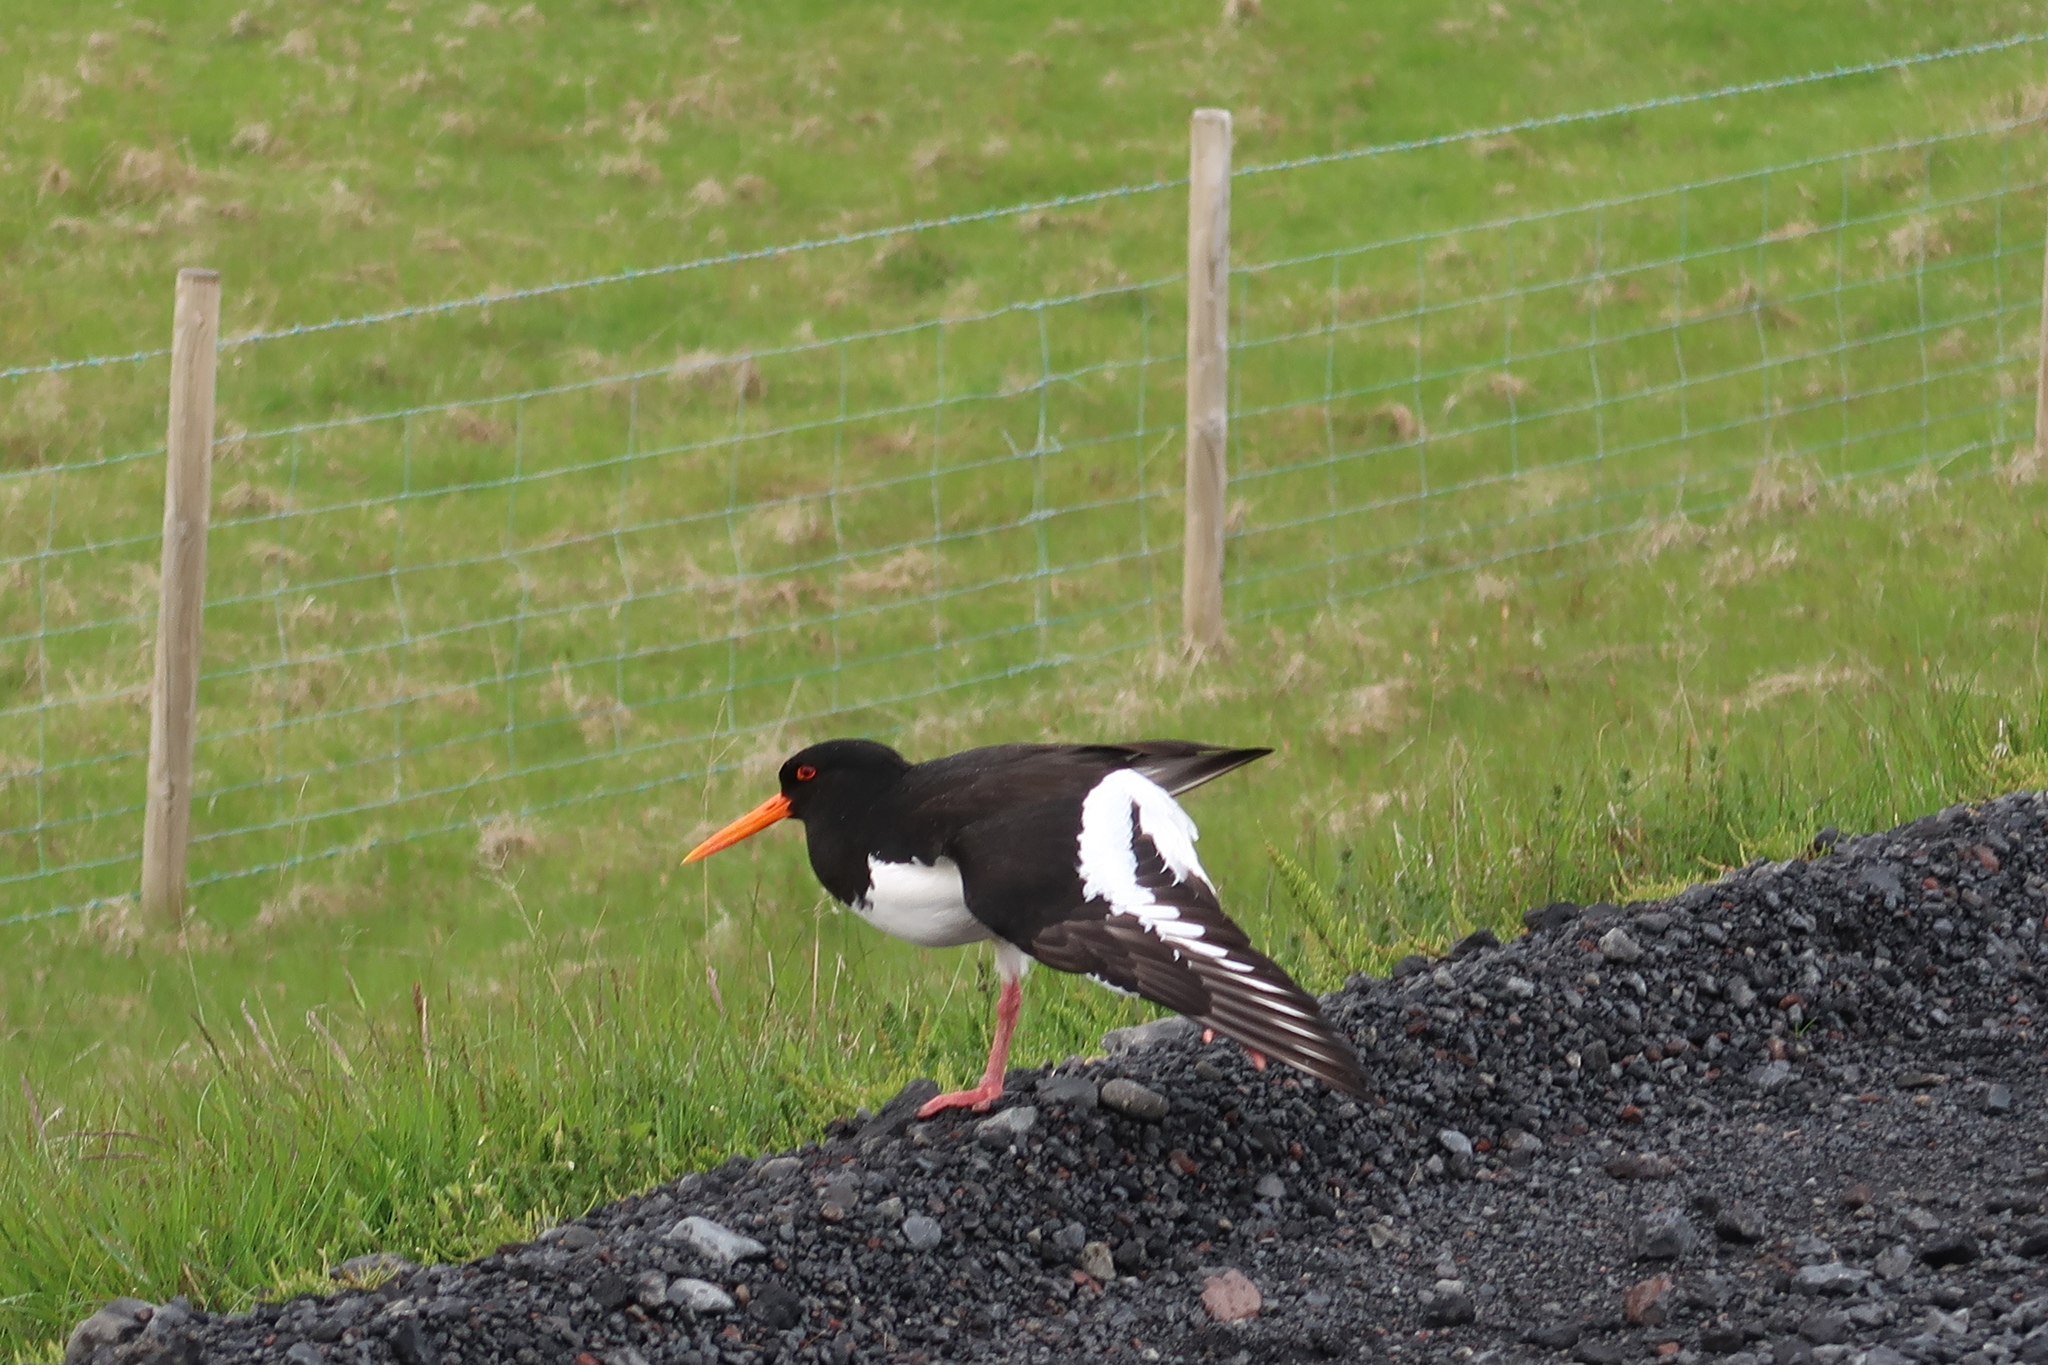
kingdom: Animalia
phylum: Chordata
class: Aves
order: Charadriiformes
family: Haematopodidae
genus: Haematopus
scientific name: Haematopus ostralegus
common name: Eurasian oystercatcher
